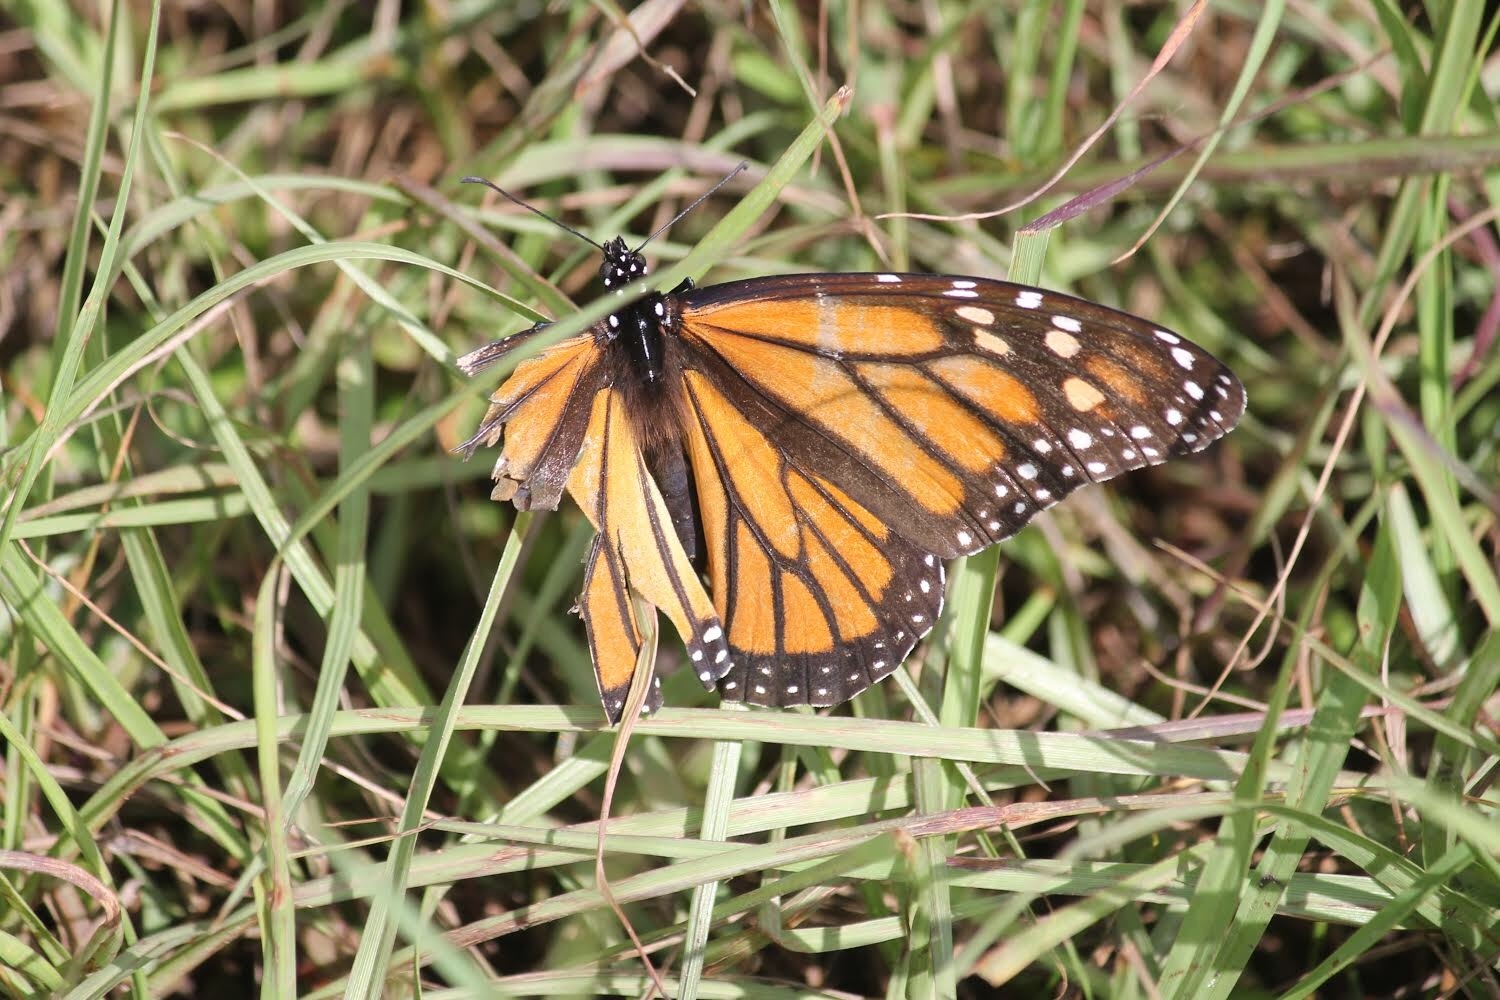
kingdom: Animalia
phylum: Arthropoda
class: Insecta
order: Lepidoptera
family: Nymphalidae
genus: Danaus
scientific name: Danaus plexippus
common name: Monarch
